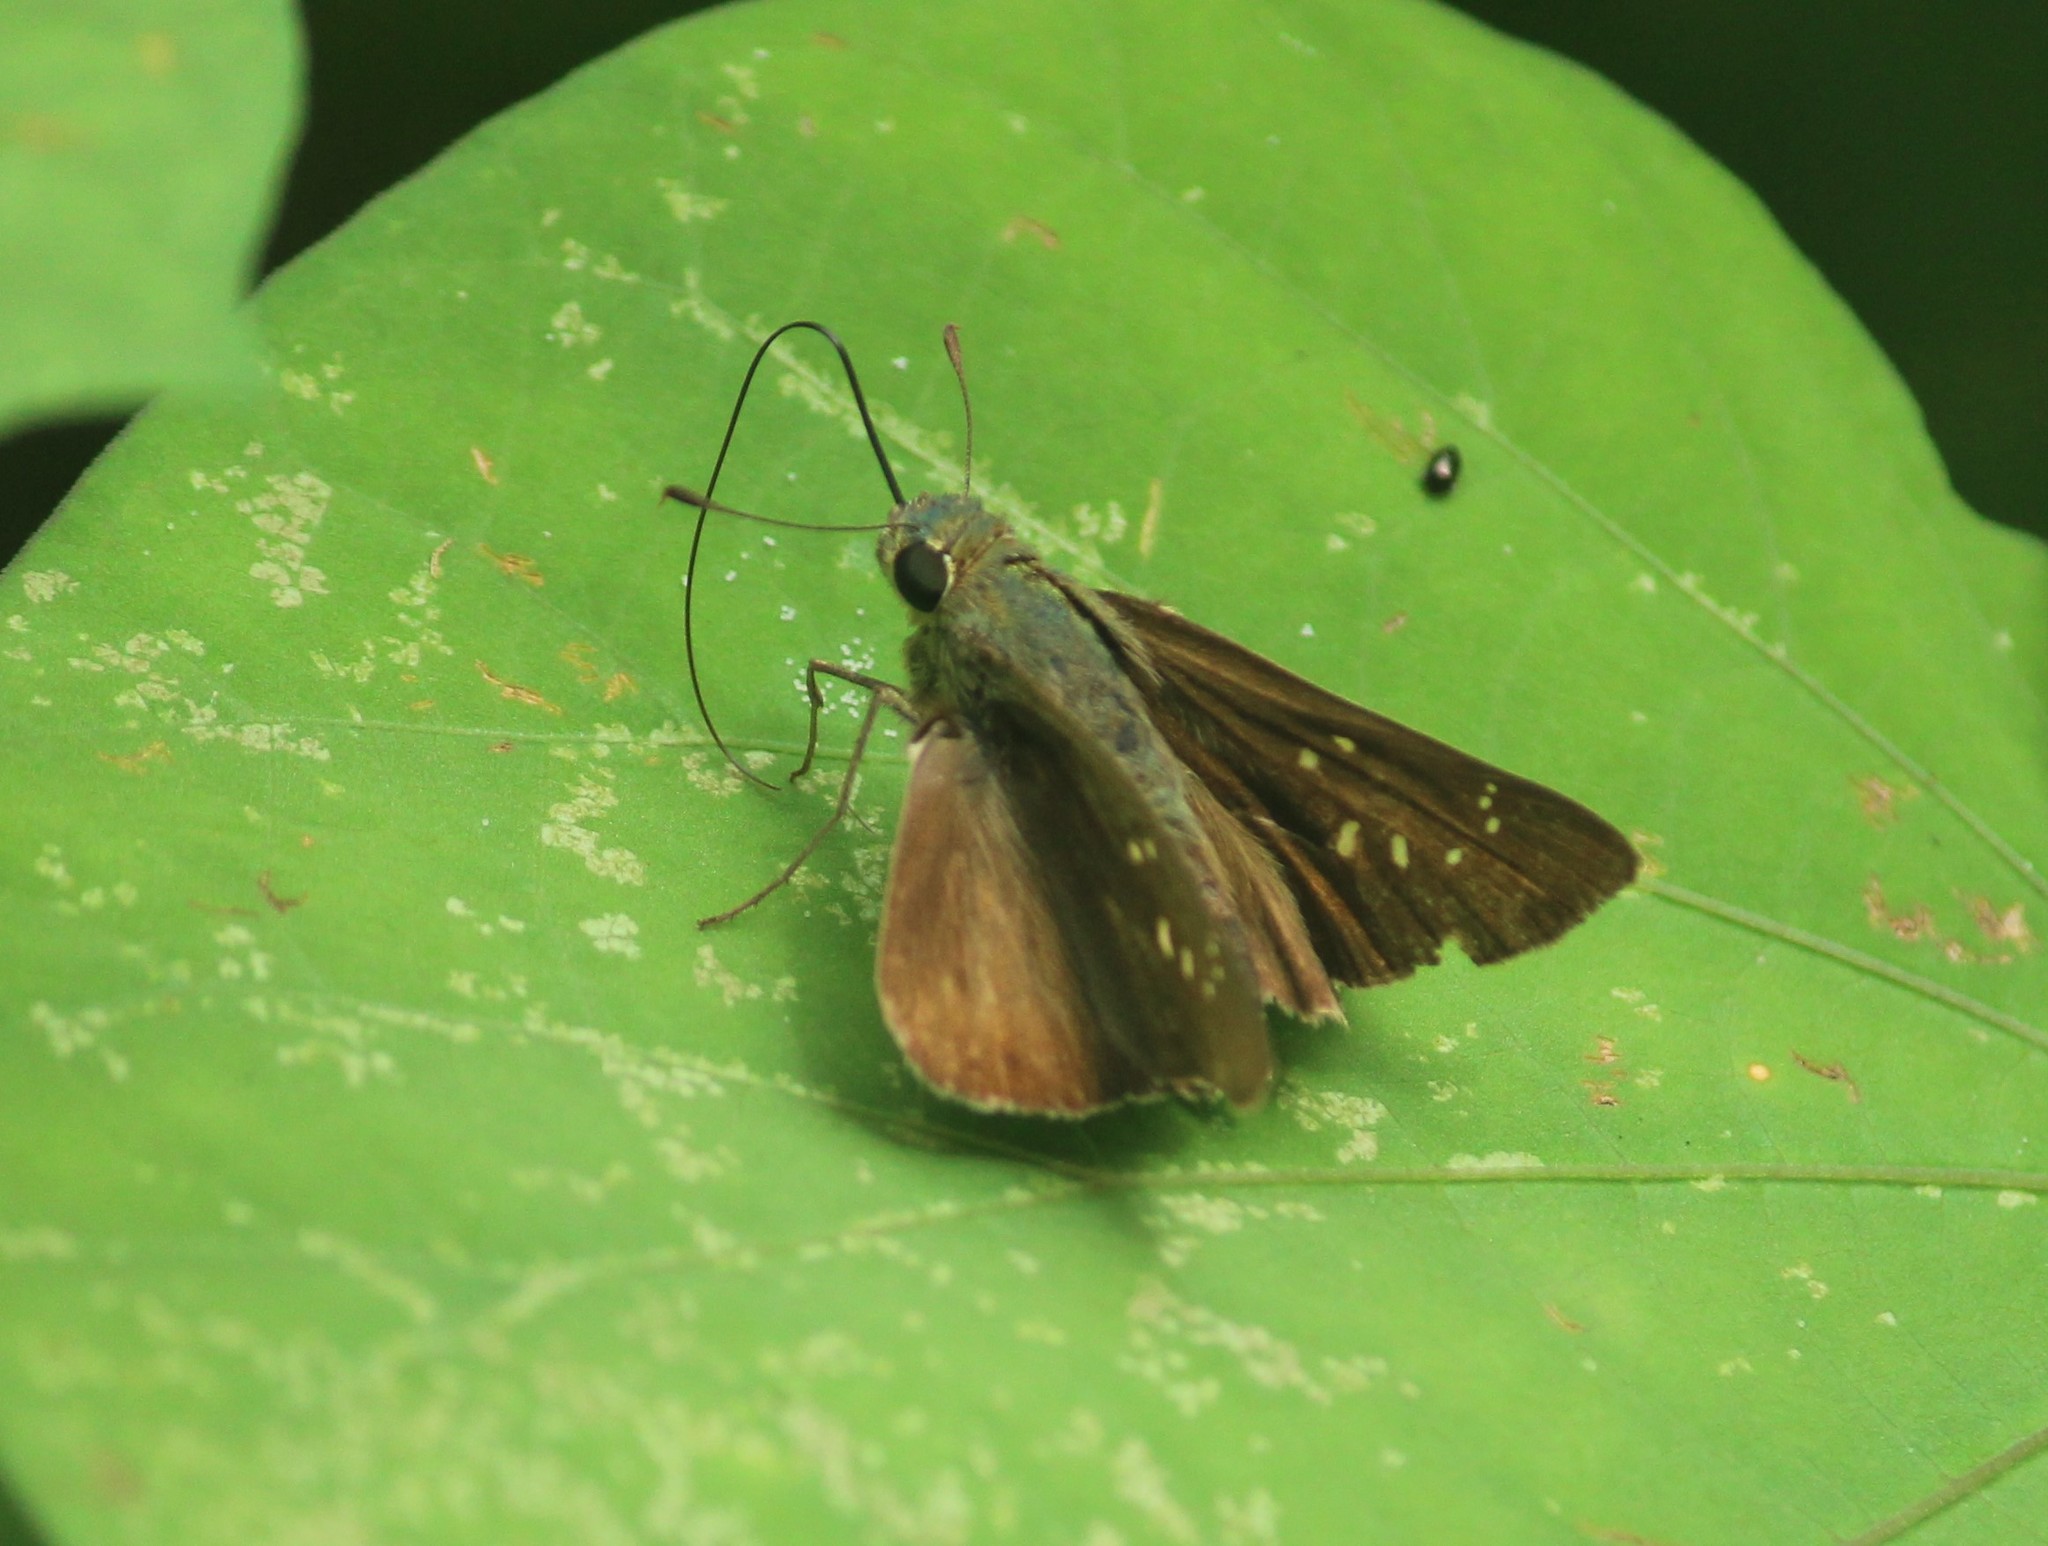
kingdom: Animalia
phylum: Arthropoda
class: Insecta
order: Lepidoptera
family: Hesperiidae
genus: Pelopidas
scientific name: Pelopidas agna
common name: Little branded swift
